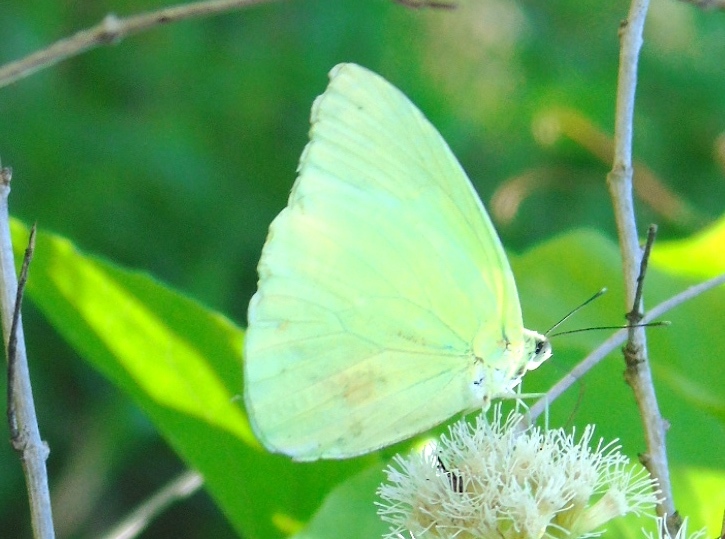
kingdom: Animalia
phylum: Arthropoda
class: Insecta
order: Lepidoptera
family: Pieridae
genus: Aphrissa
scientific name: Aphrissa statira
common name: Statira sulphur
